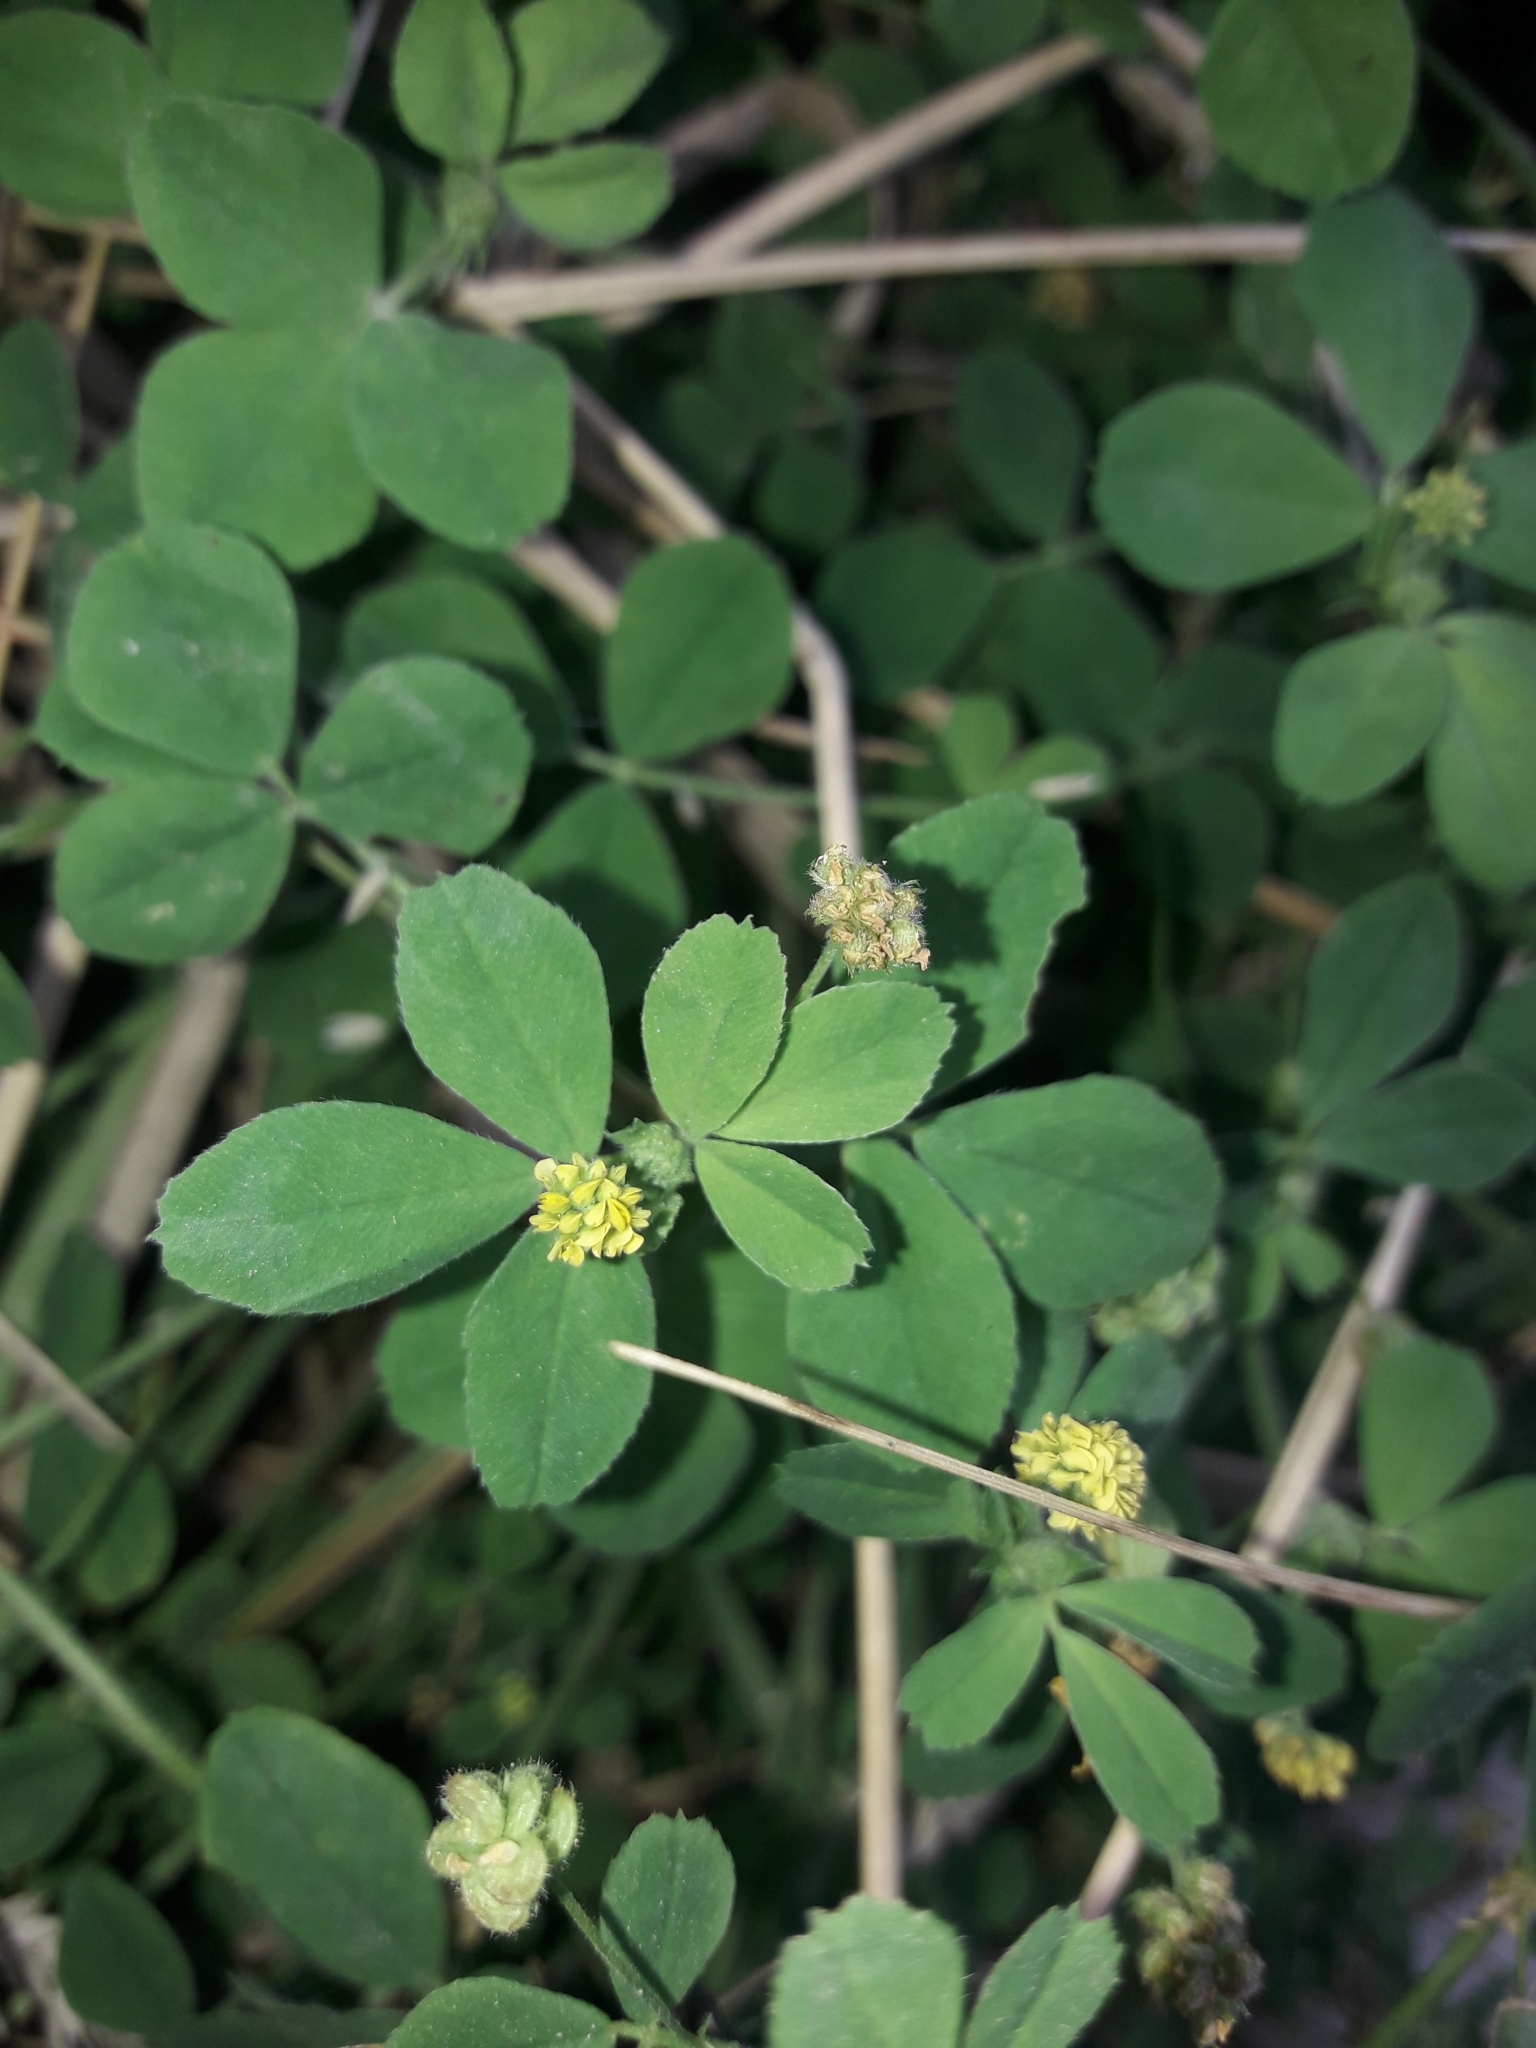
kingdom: Plantae
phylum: Tracheophyta
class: Magnoliopsida
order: Fabales
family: Fabaceae
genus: Medicago
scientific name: Medicago lupulina
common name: Black medick
